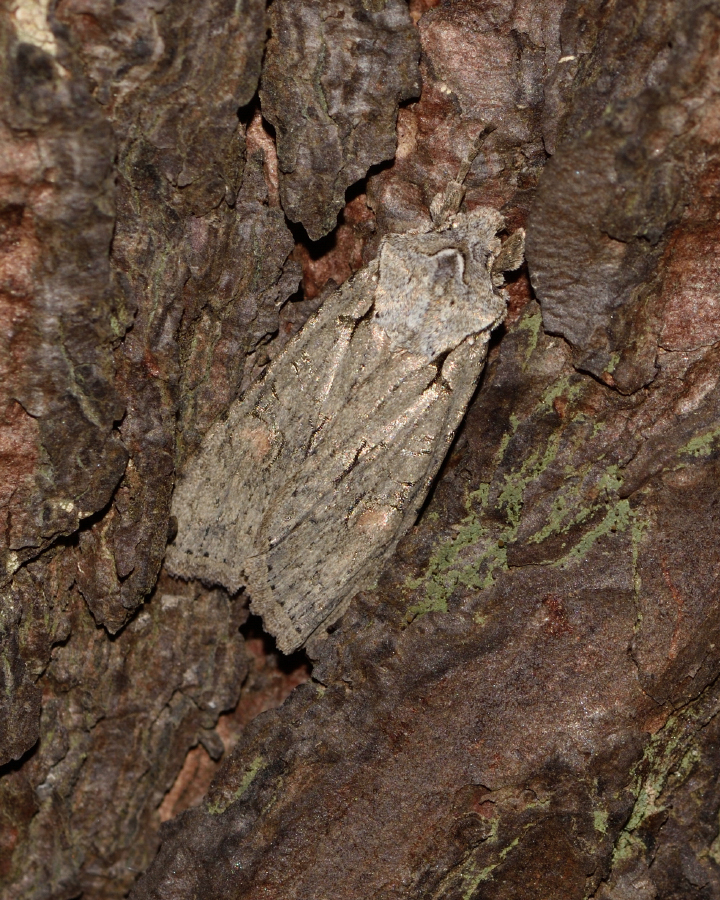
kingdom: Animalia
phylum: Arthropoda
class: Insecta
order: Lepidoptera
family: Noctuidae
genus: Lithophane
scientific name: Lithophane ornitopus
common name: Grey shoulder-knot
